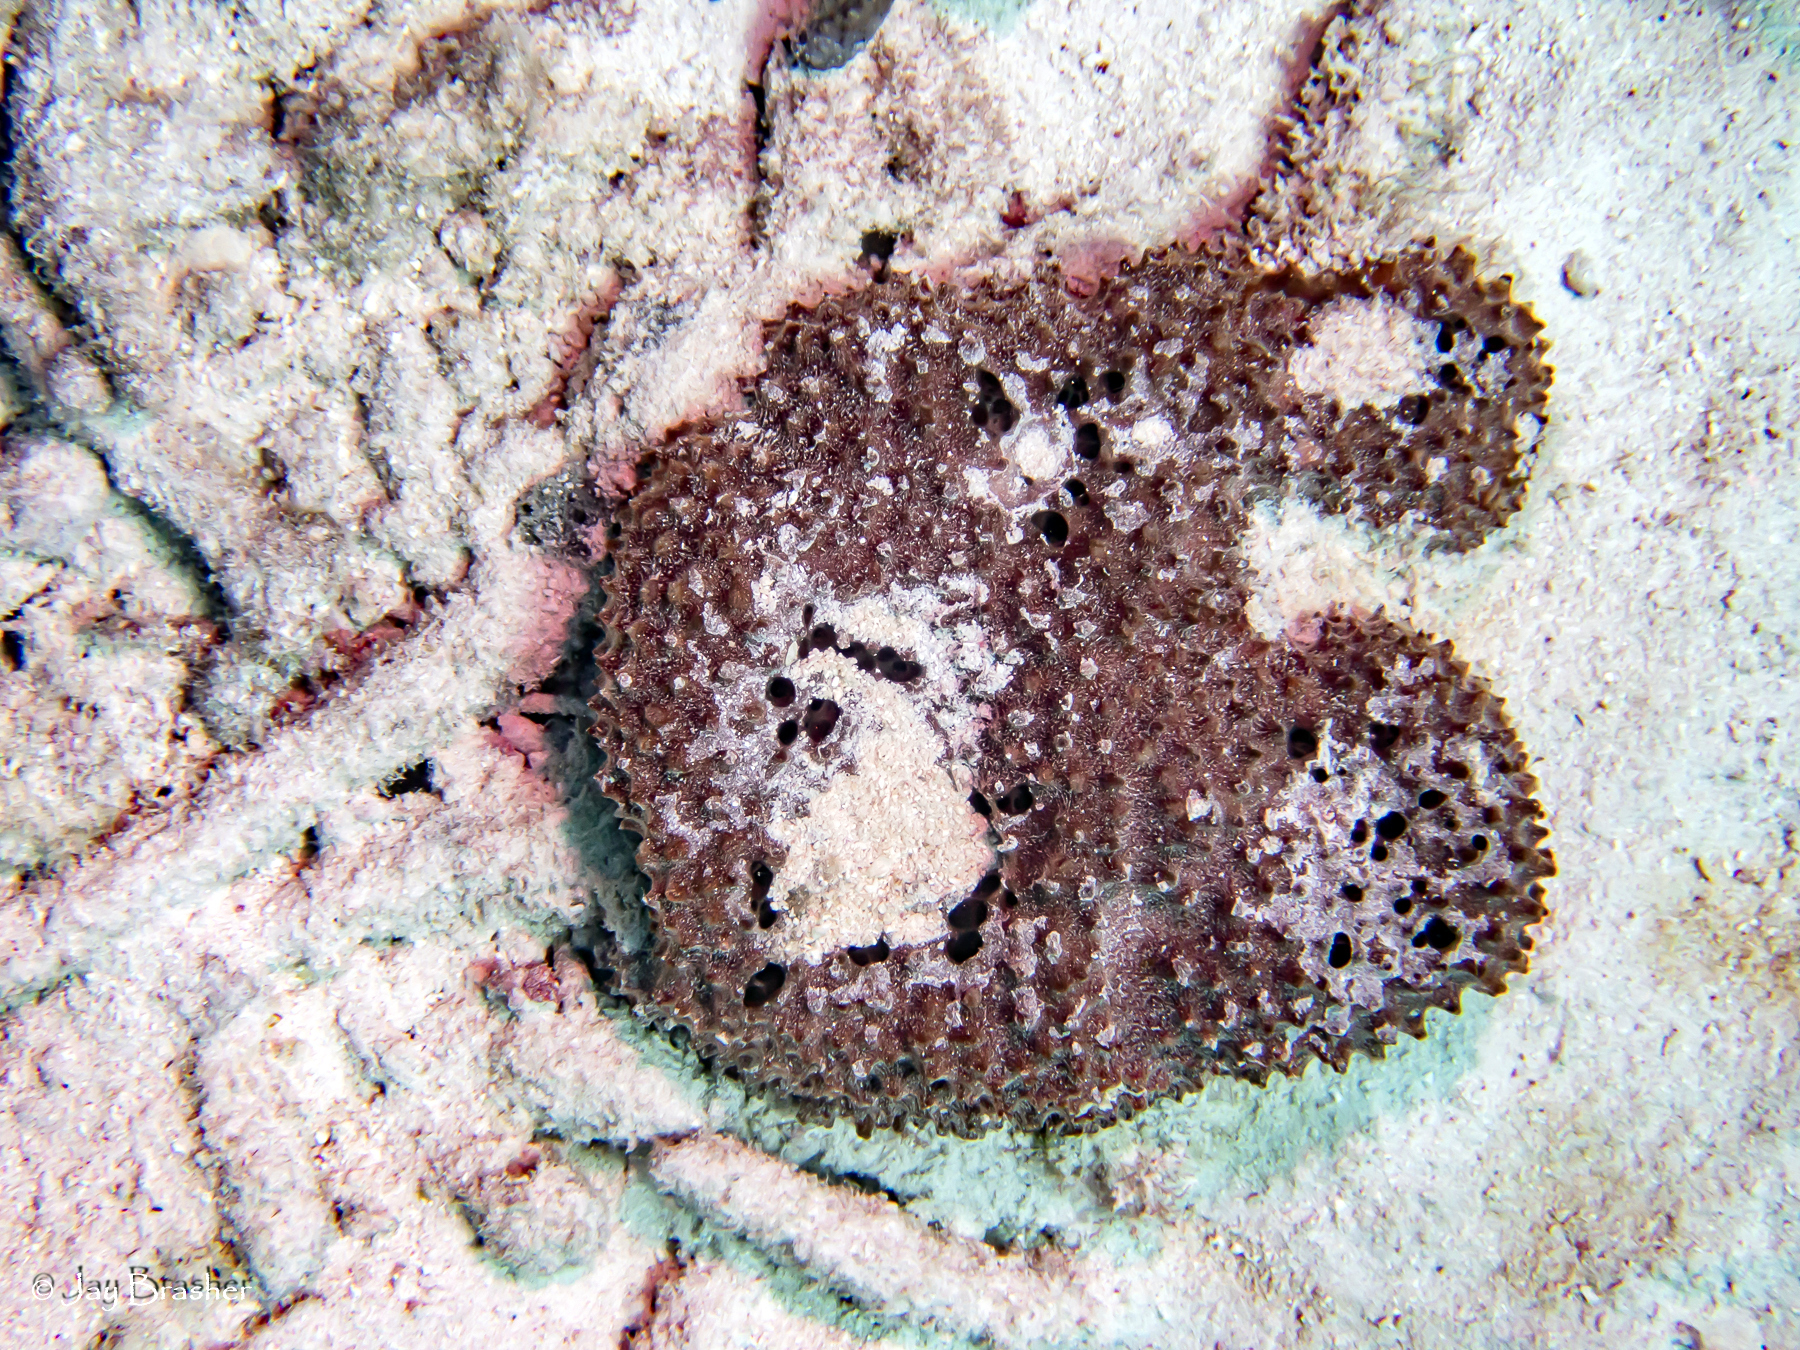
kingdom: Animalia
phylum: Porifera
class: Demospongiae
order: Dictyoceratida
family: Irciniidae
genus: Ircinia
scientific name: Ircinia felix
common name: Stinker sponge
